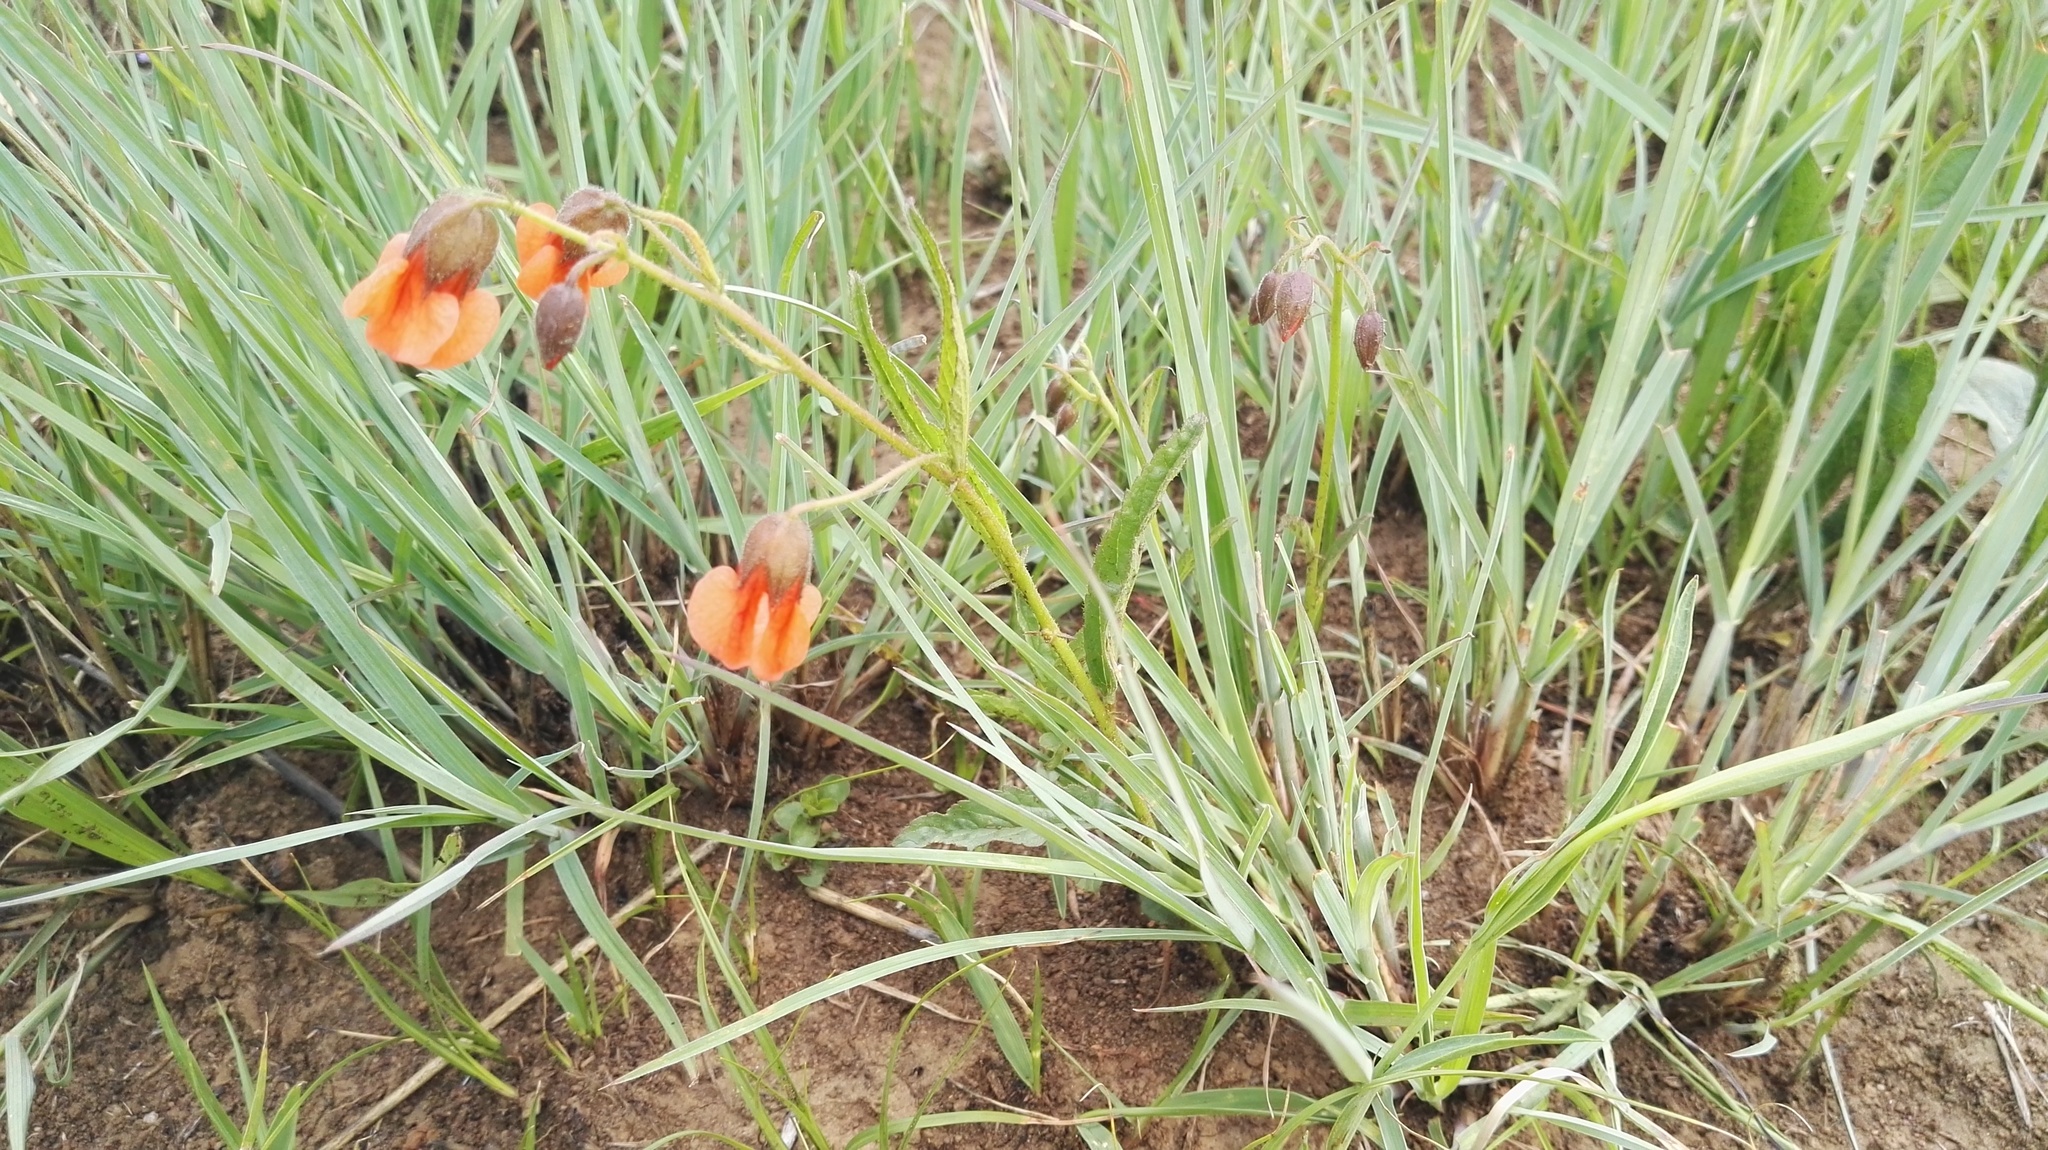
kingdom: Plantae
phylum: Tracheophyta
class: Magnoliopsida
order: Malvales
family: Malvaceae
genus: Hermannia
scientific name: Hermannia cristata
